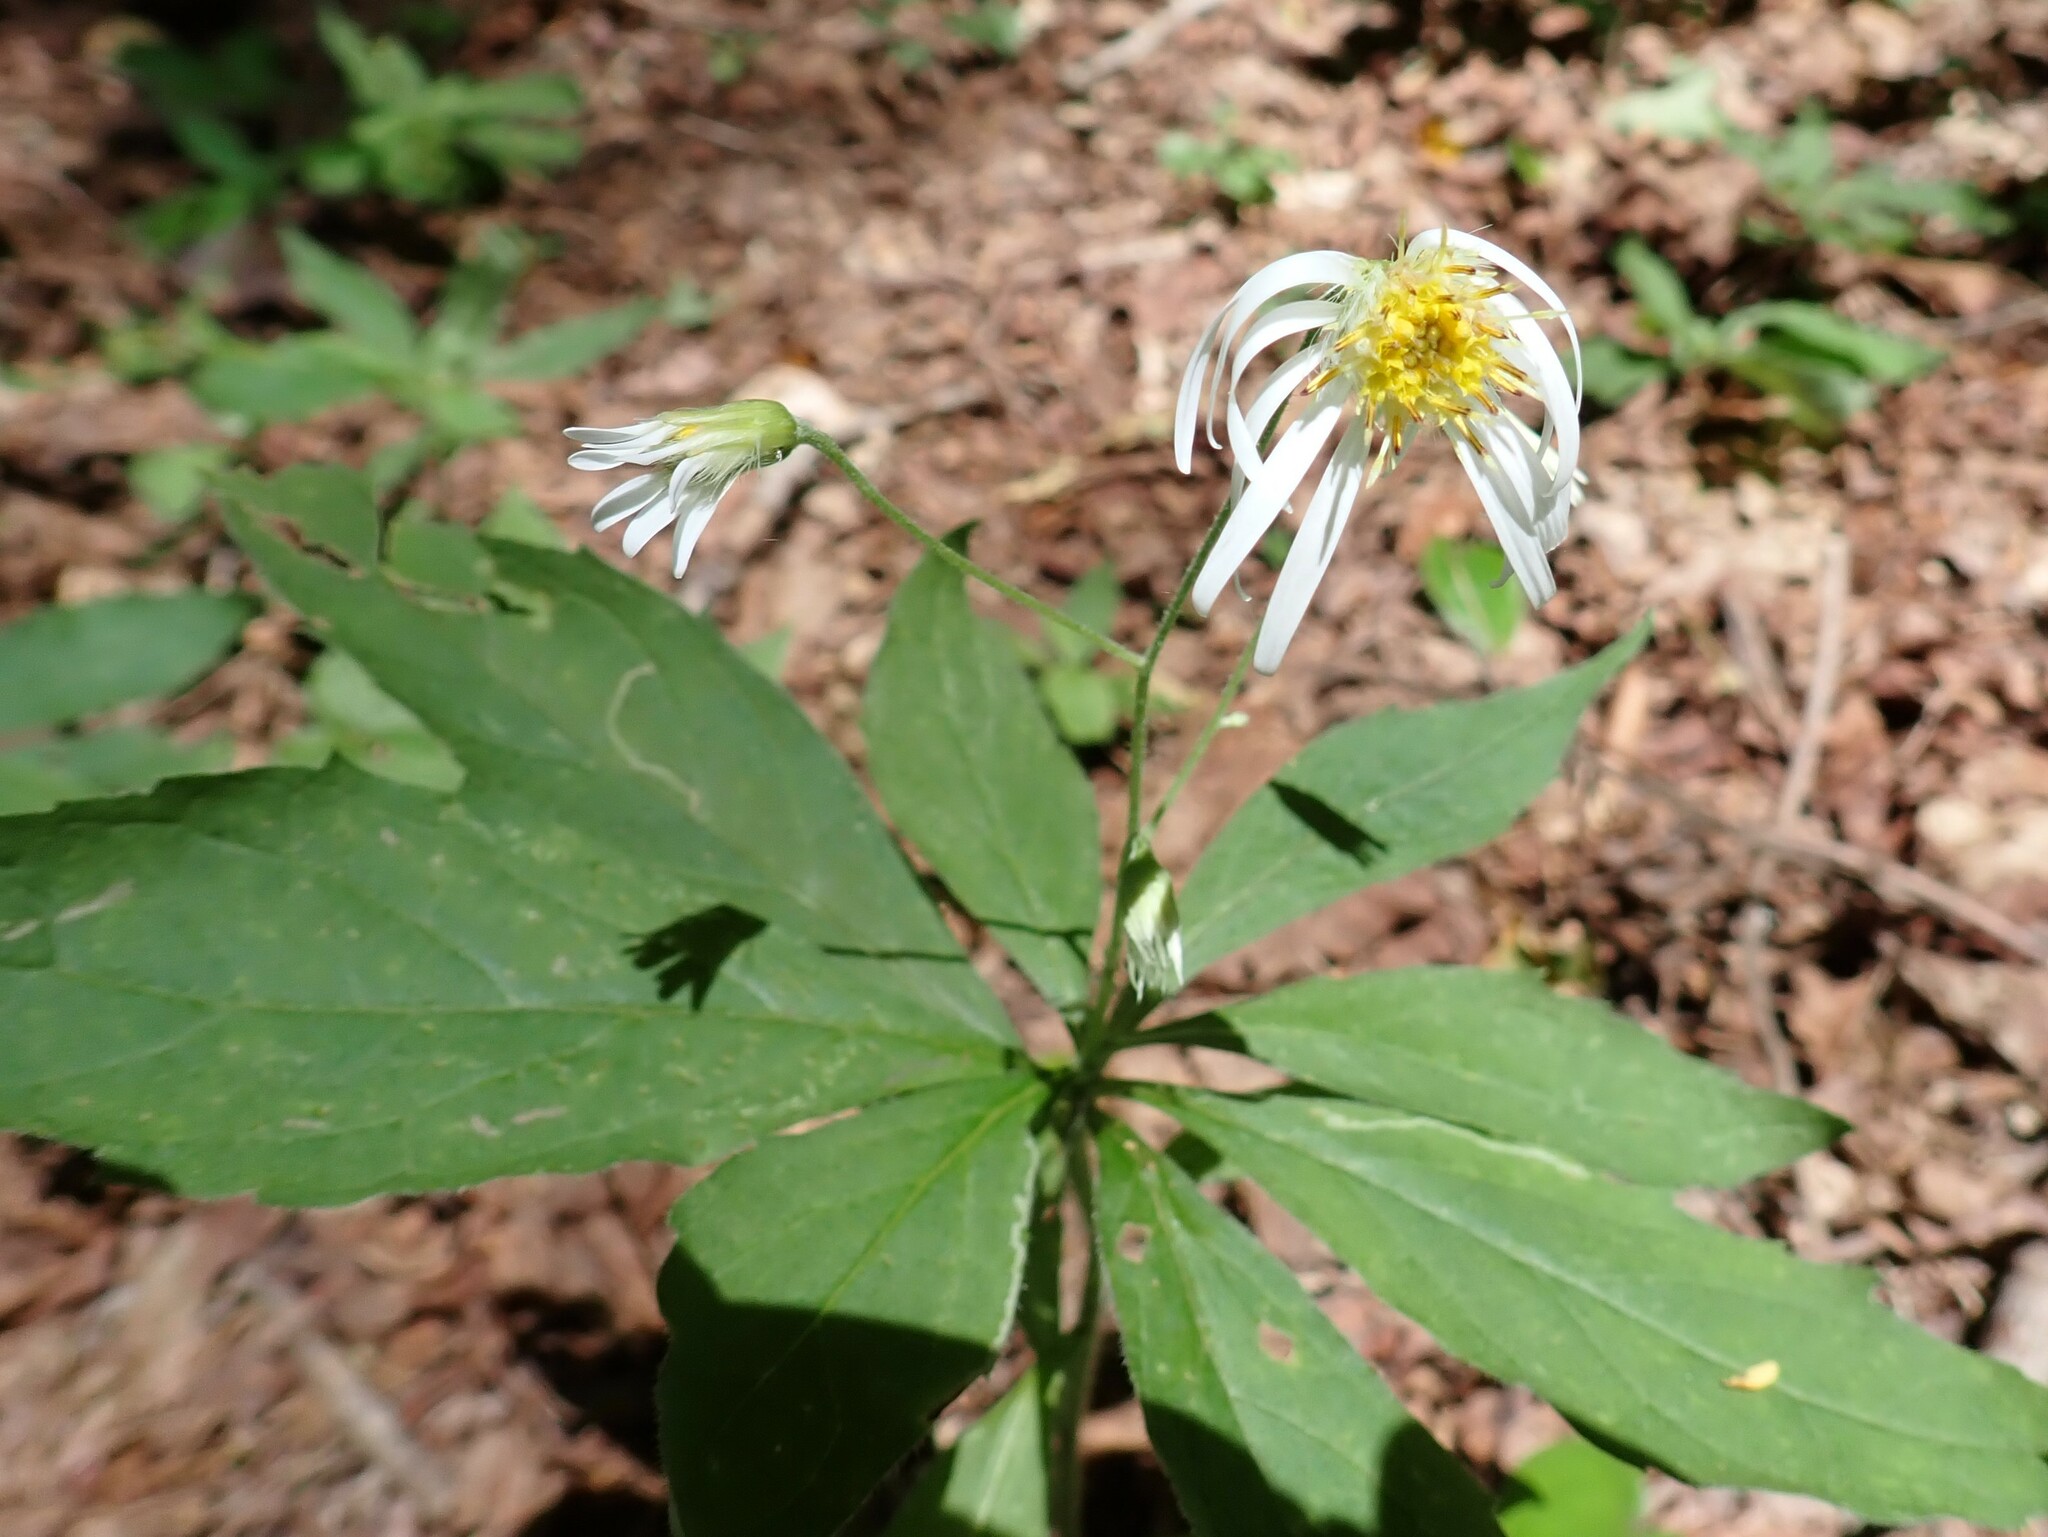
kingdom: Plantae
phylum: Tracheophyta
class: Magnoliopsida
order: Asterales
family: Asteraceae
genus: Oclemena
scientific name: Oclemena acuminata
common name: Mountain aster
